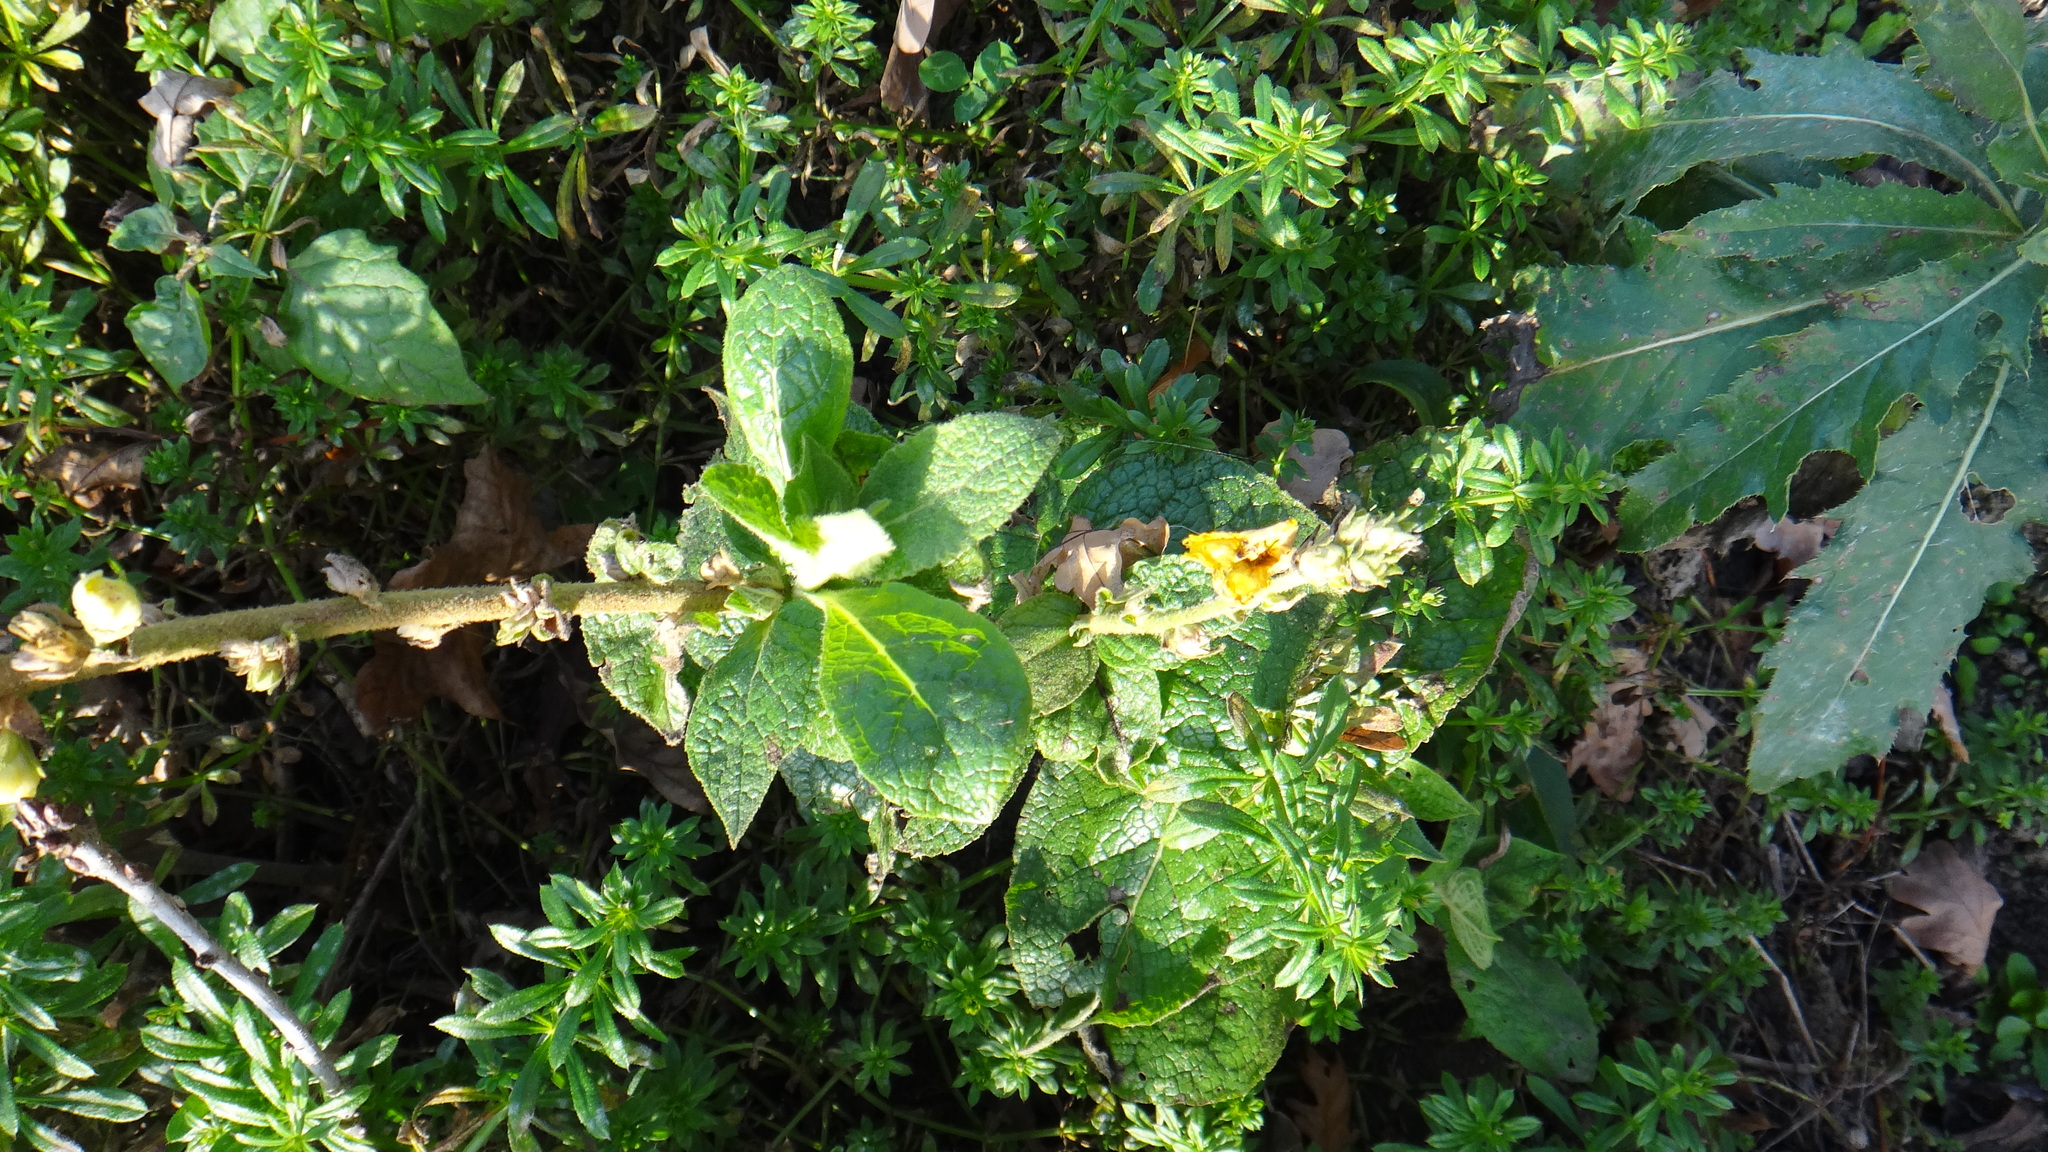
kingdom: Plantae
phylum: Tracheophyta
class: Magnoliopsida
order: Lamiales
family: Scrophulariaceae
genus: Verbascum
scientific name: Verbascum phlomoides
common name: Orange mullein
